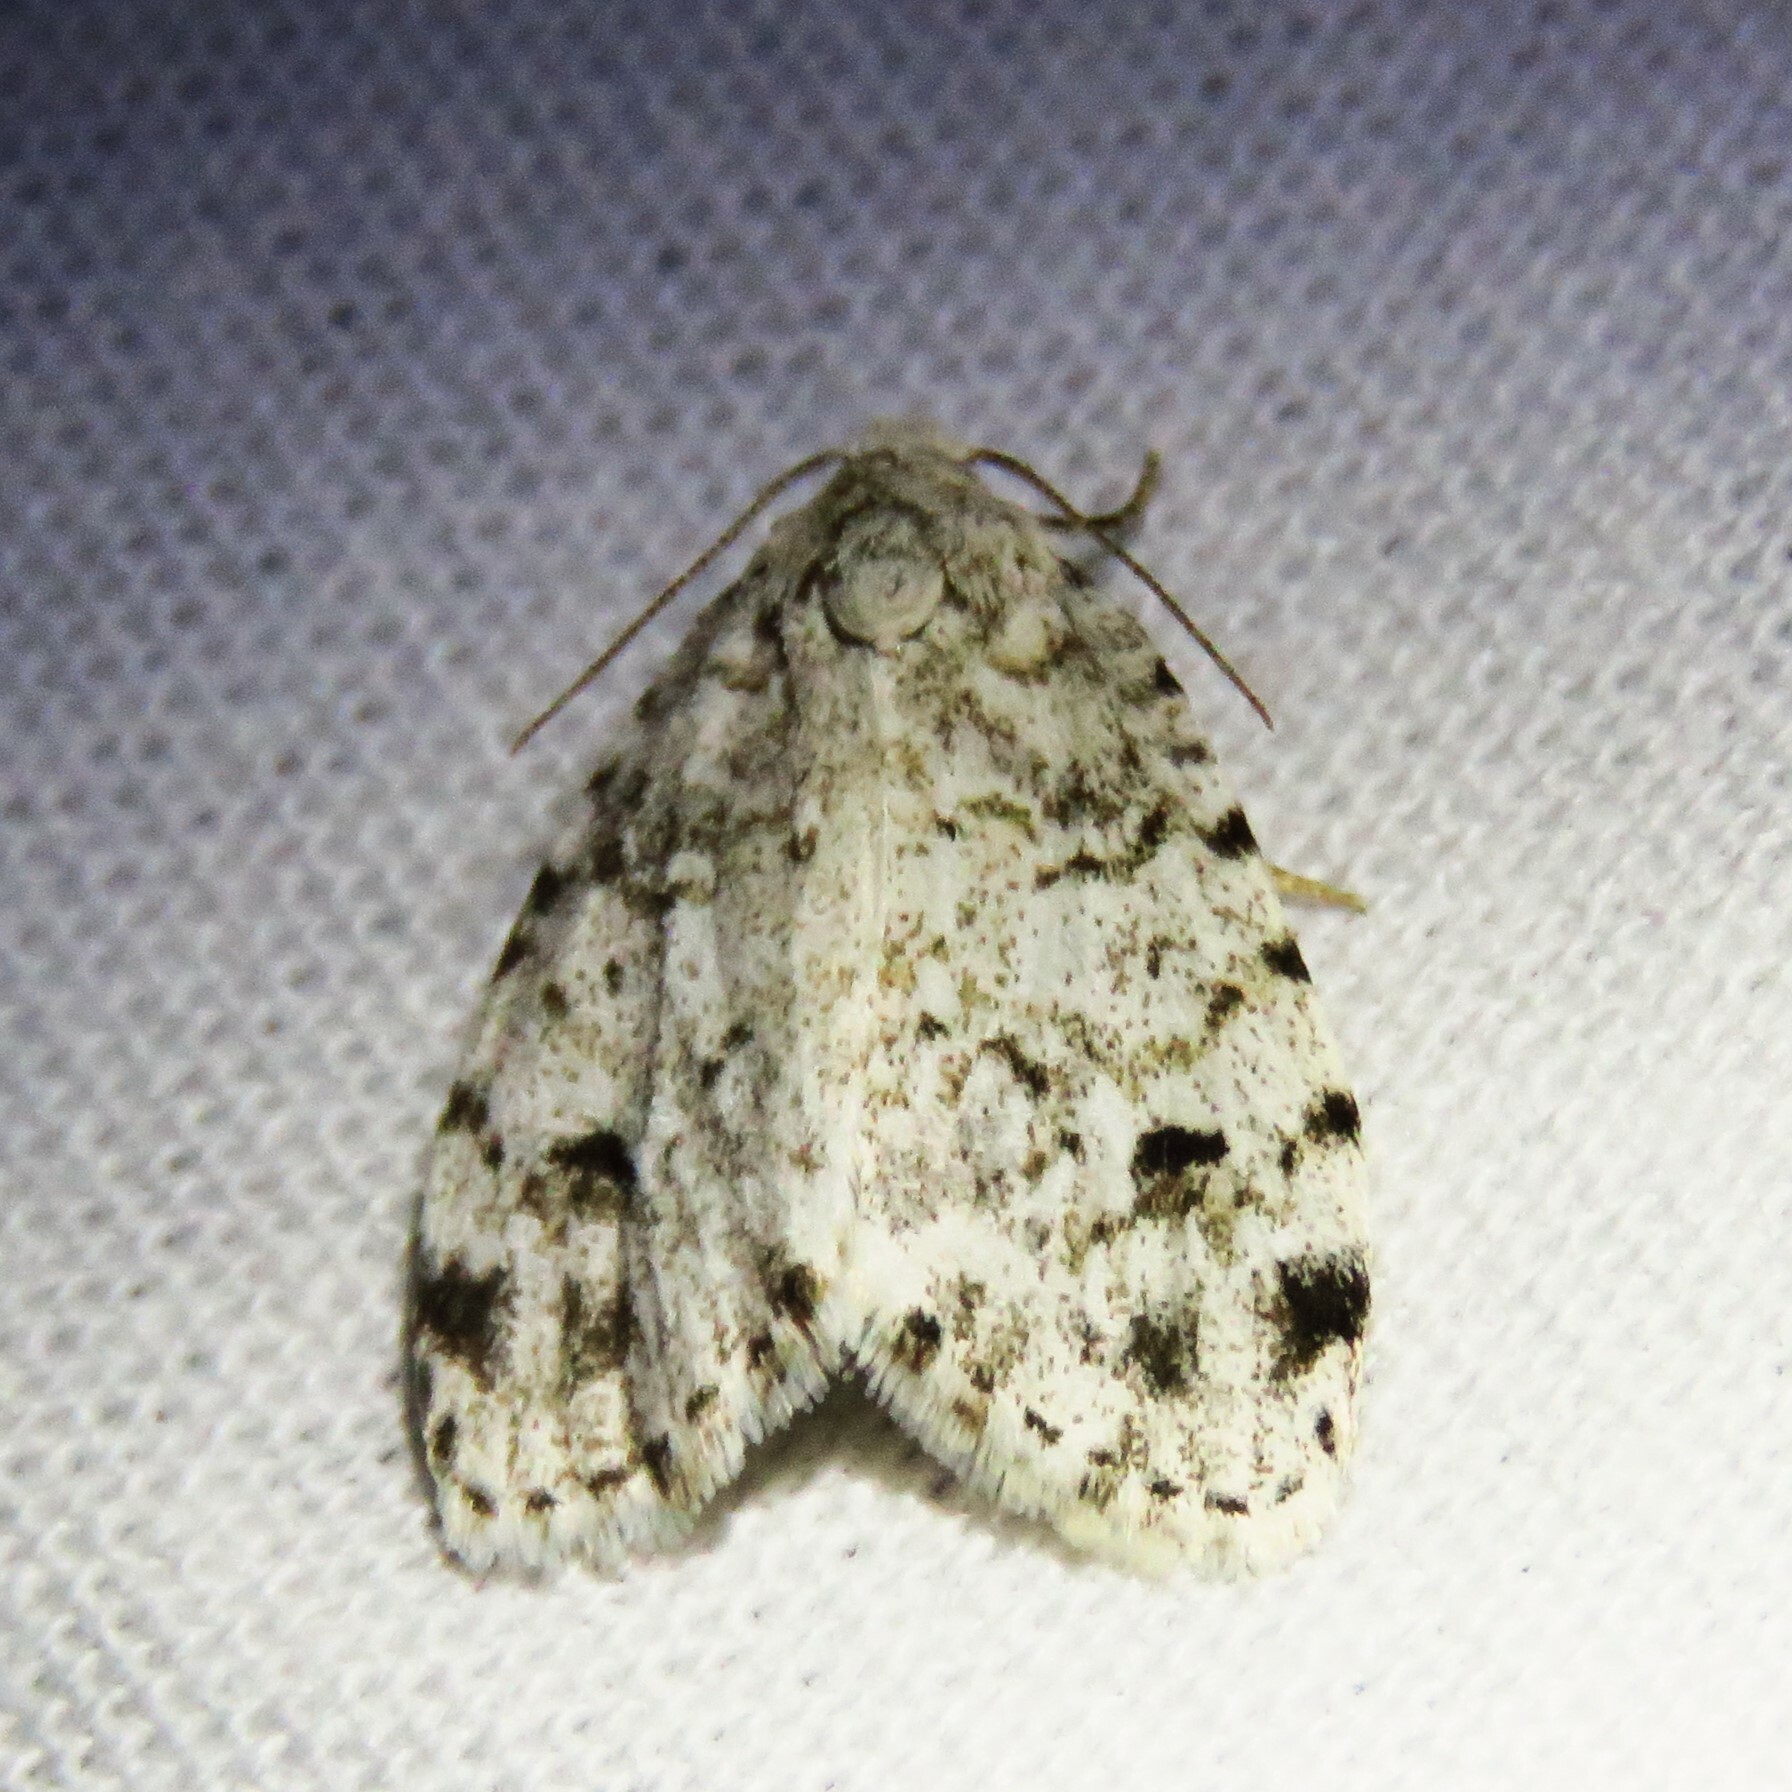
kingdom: Animalia
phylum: Arthropoda
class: Insecta
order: Lepidoptera
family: Erebidae
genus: Clemensia
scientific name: Clemensia albata
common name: Little white lichen moth
